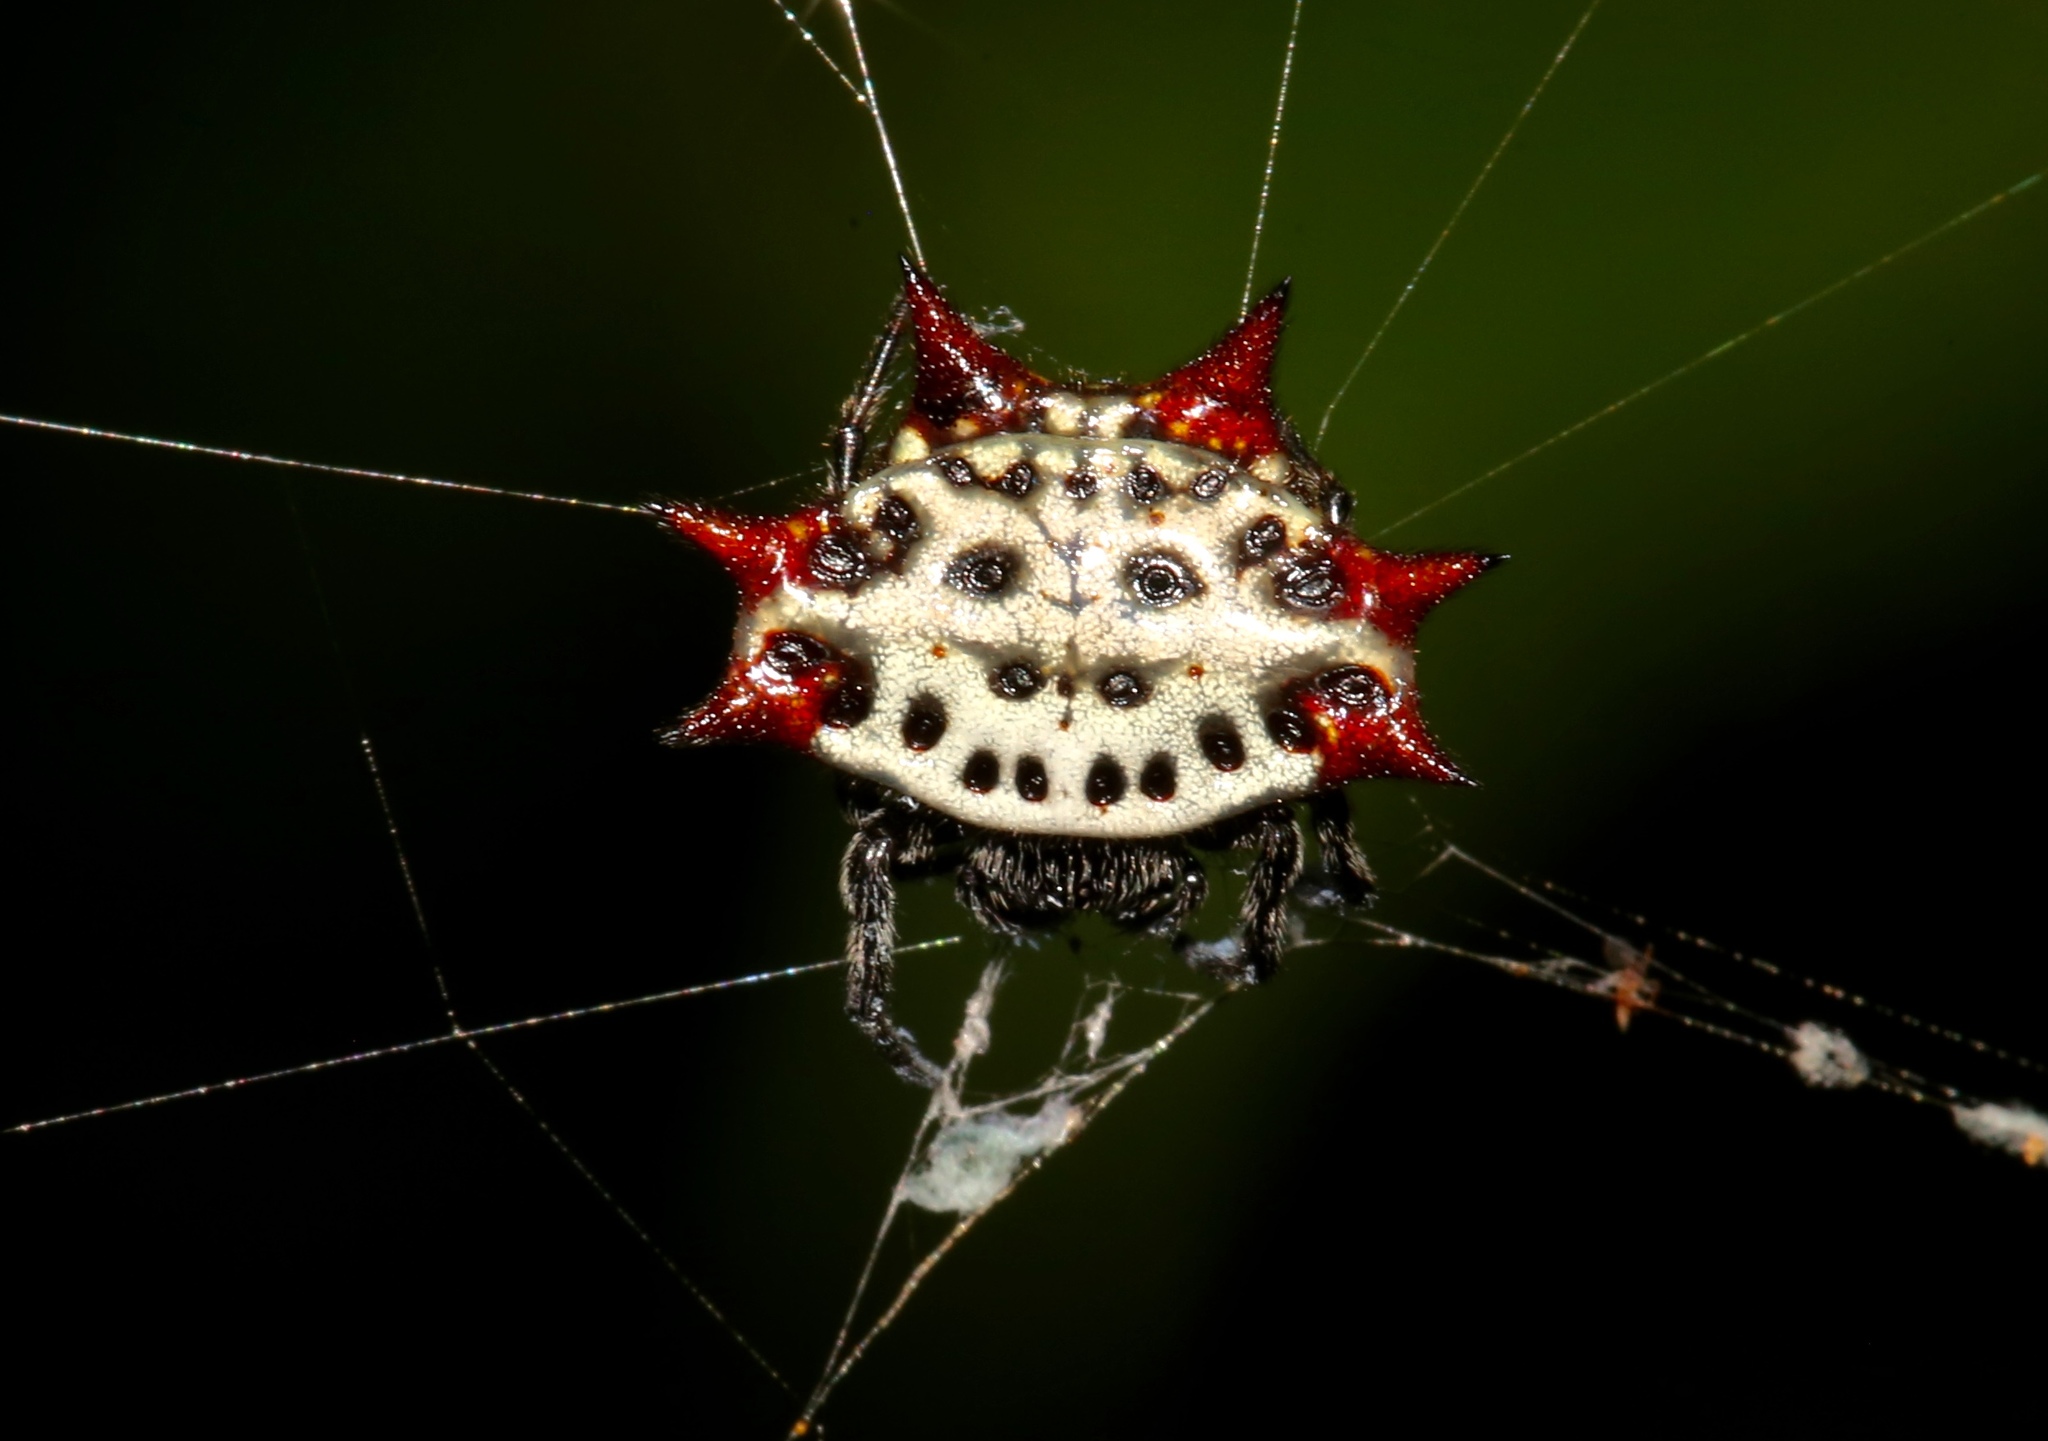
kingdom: Animalia
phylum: Arthropoda
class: Arachnida
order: Araneae
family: Araneidae
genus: Gasteracantha
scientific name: Gasteracantha cancriformis
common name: Orb weavers
